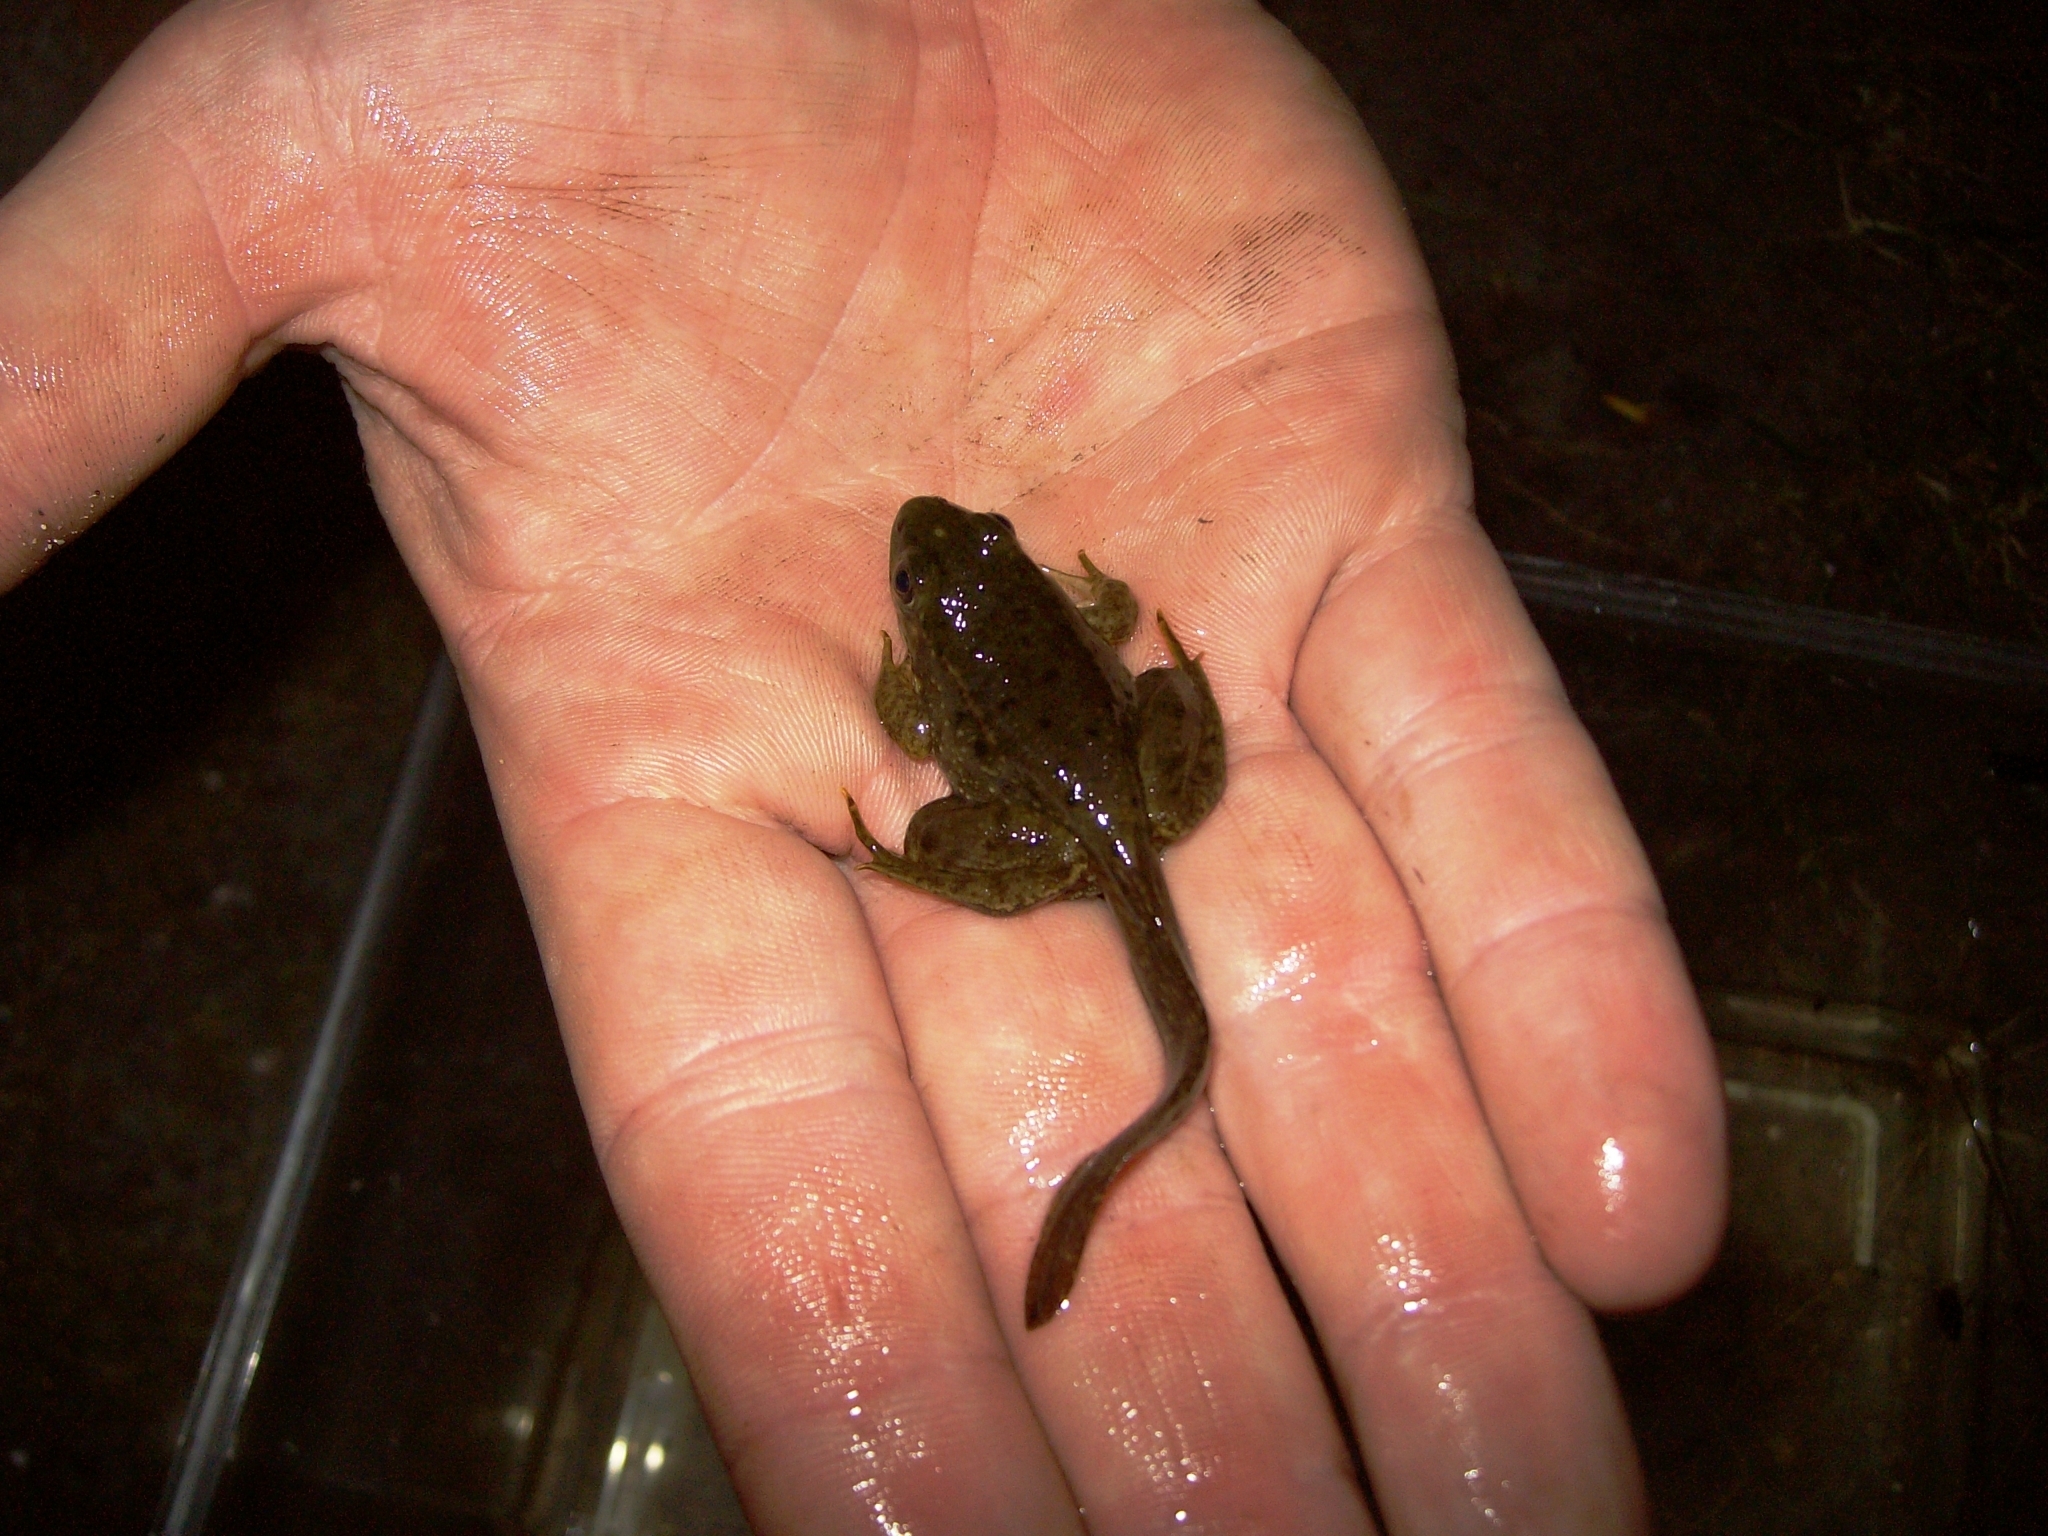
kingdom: Animalia
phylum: Chordata
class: Amphibia
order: Anura
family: Ranidae
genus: Lithobates
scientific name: Lithobates clamitans
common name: Green frog
